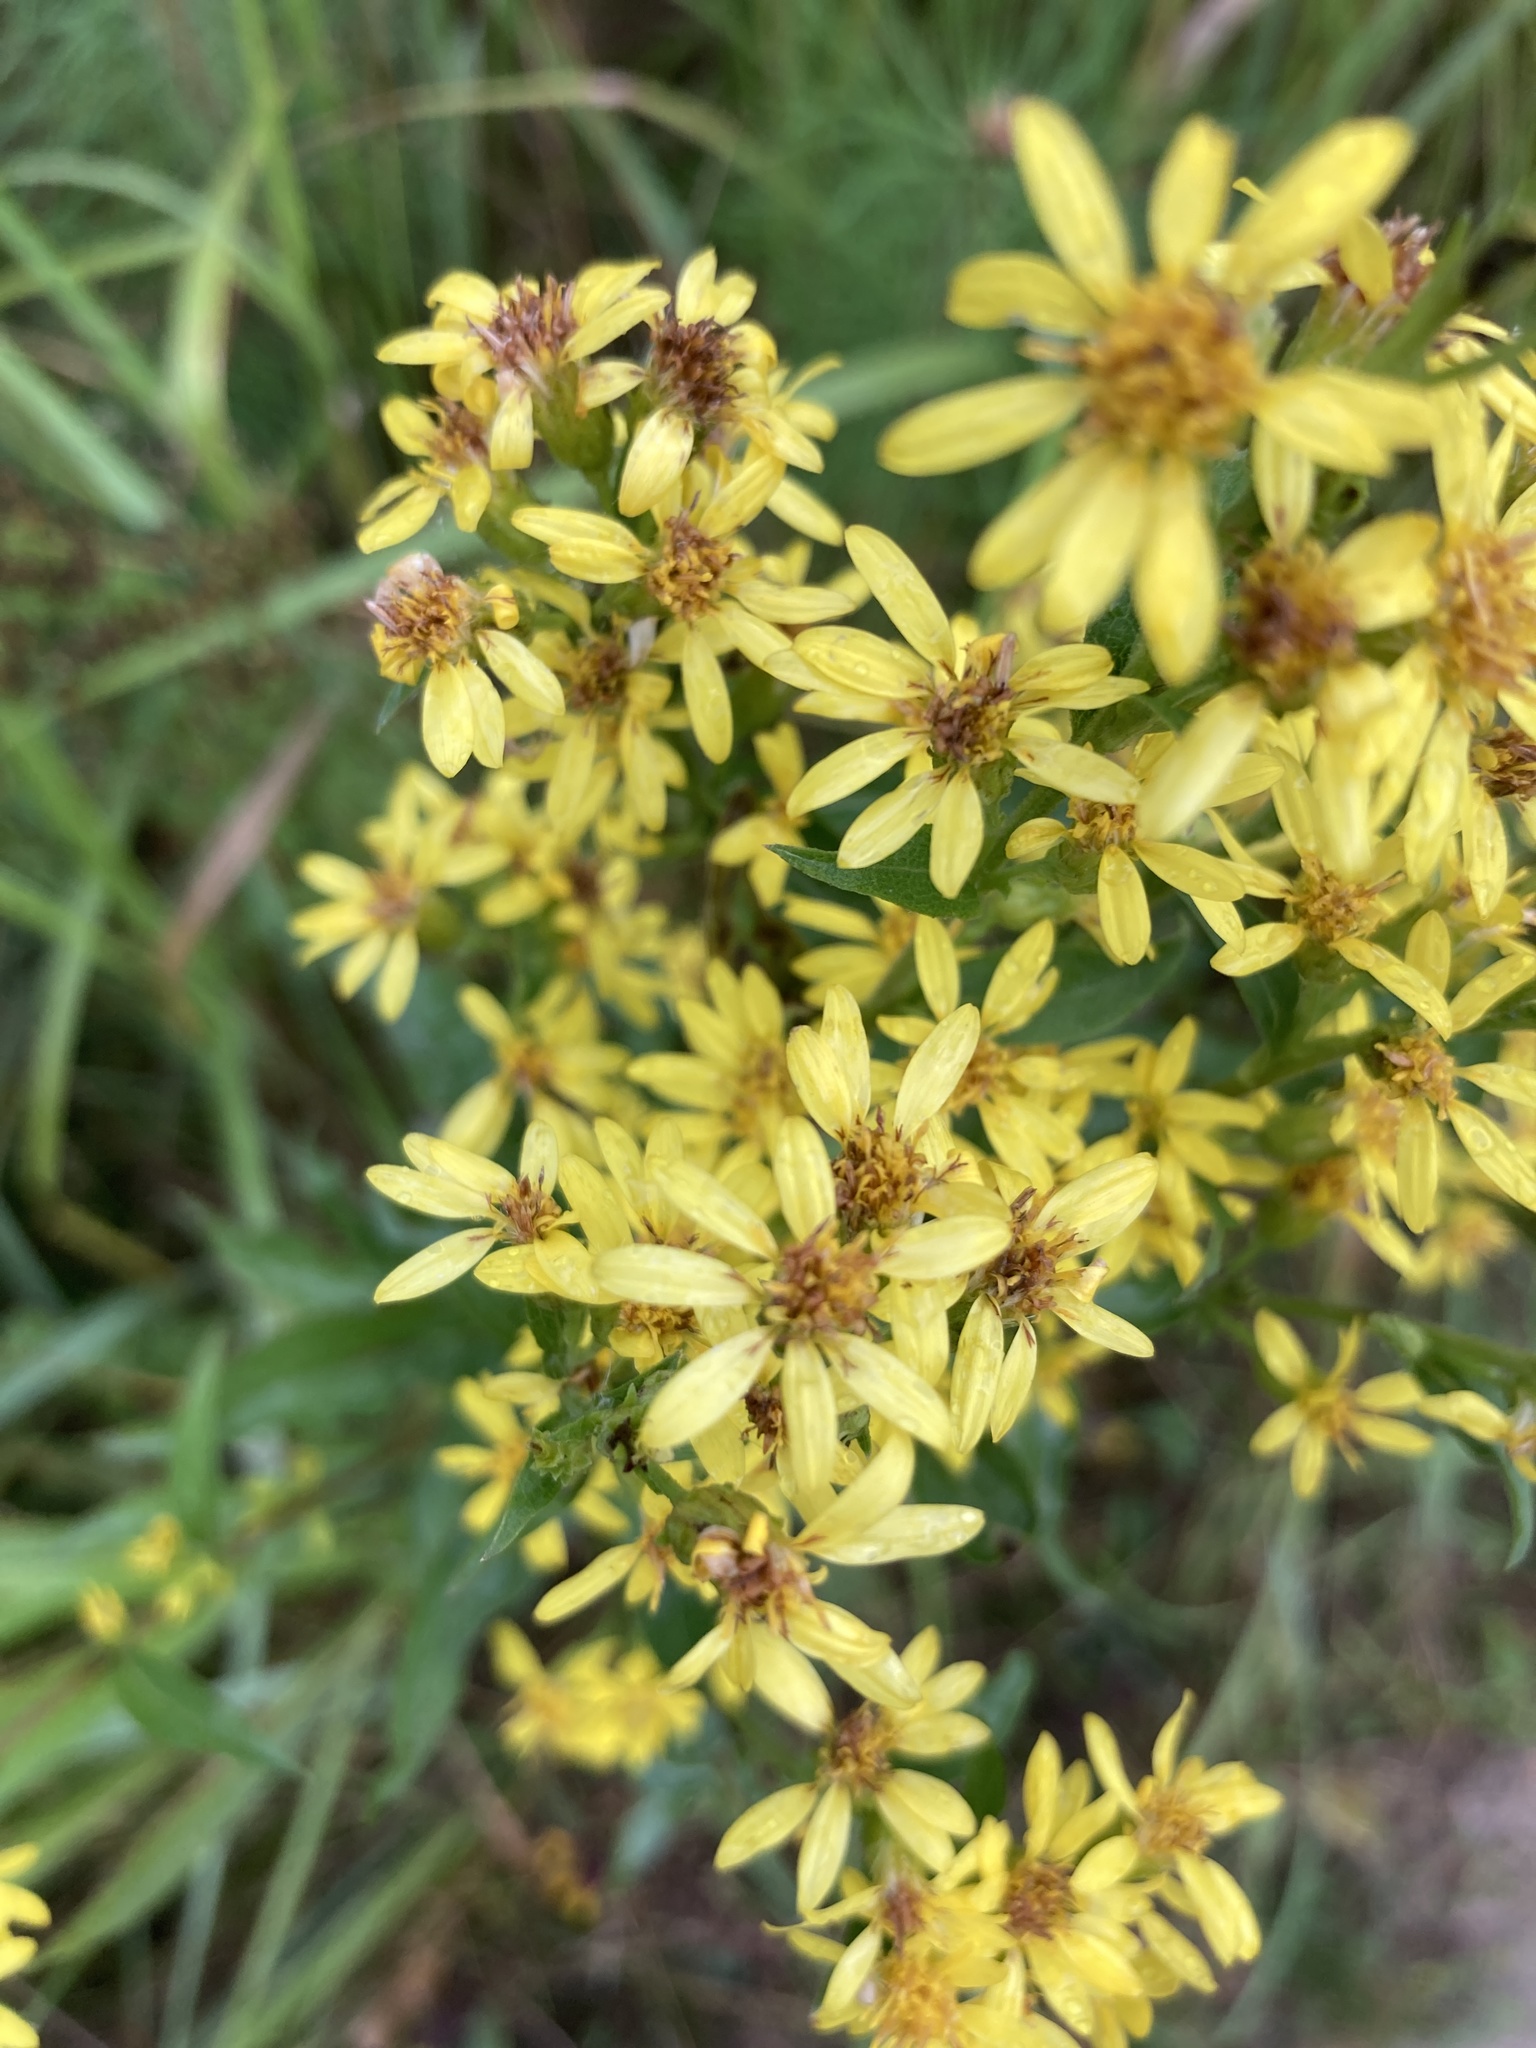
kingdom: Plantae
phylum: Tracheophyta
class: Magnoliopsida
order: Asterales
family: Asteraceae
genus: Solidago
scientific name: Solidago virgaurea
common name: Goldenrod
